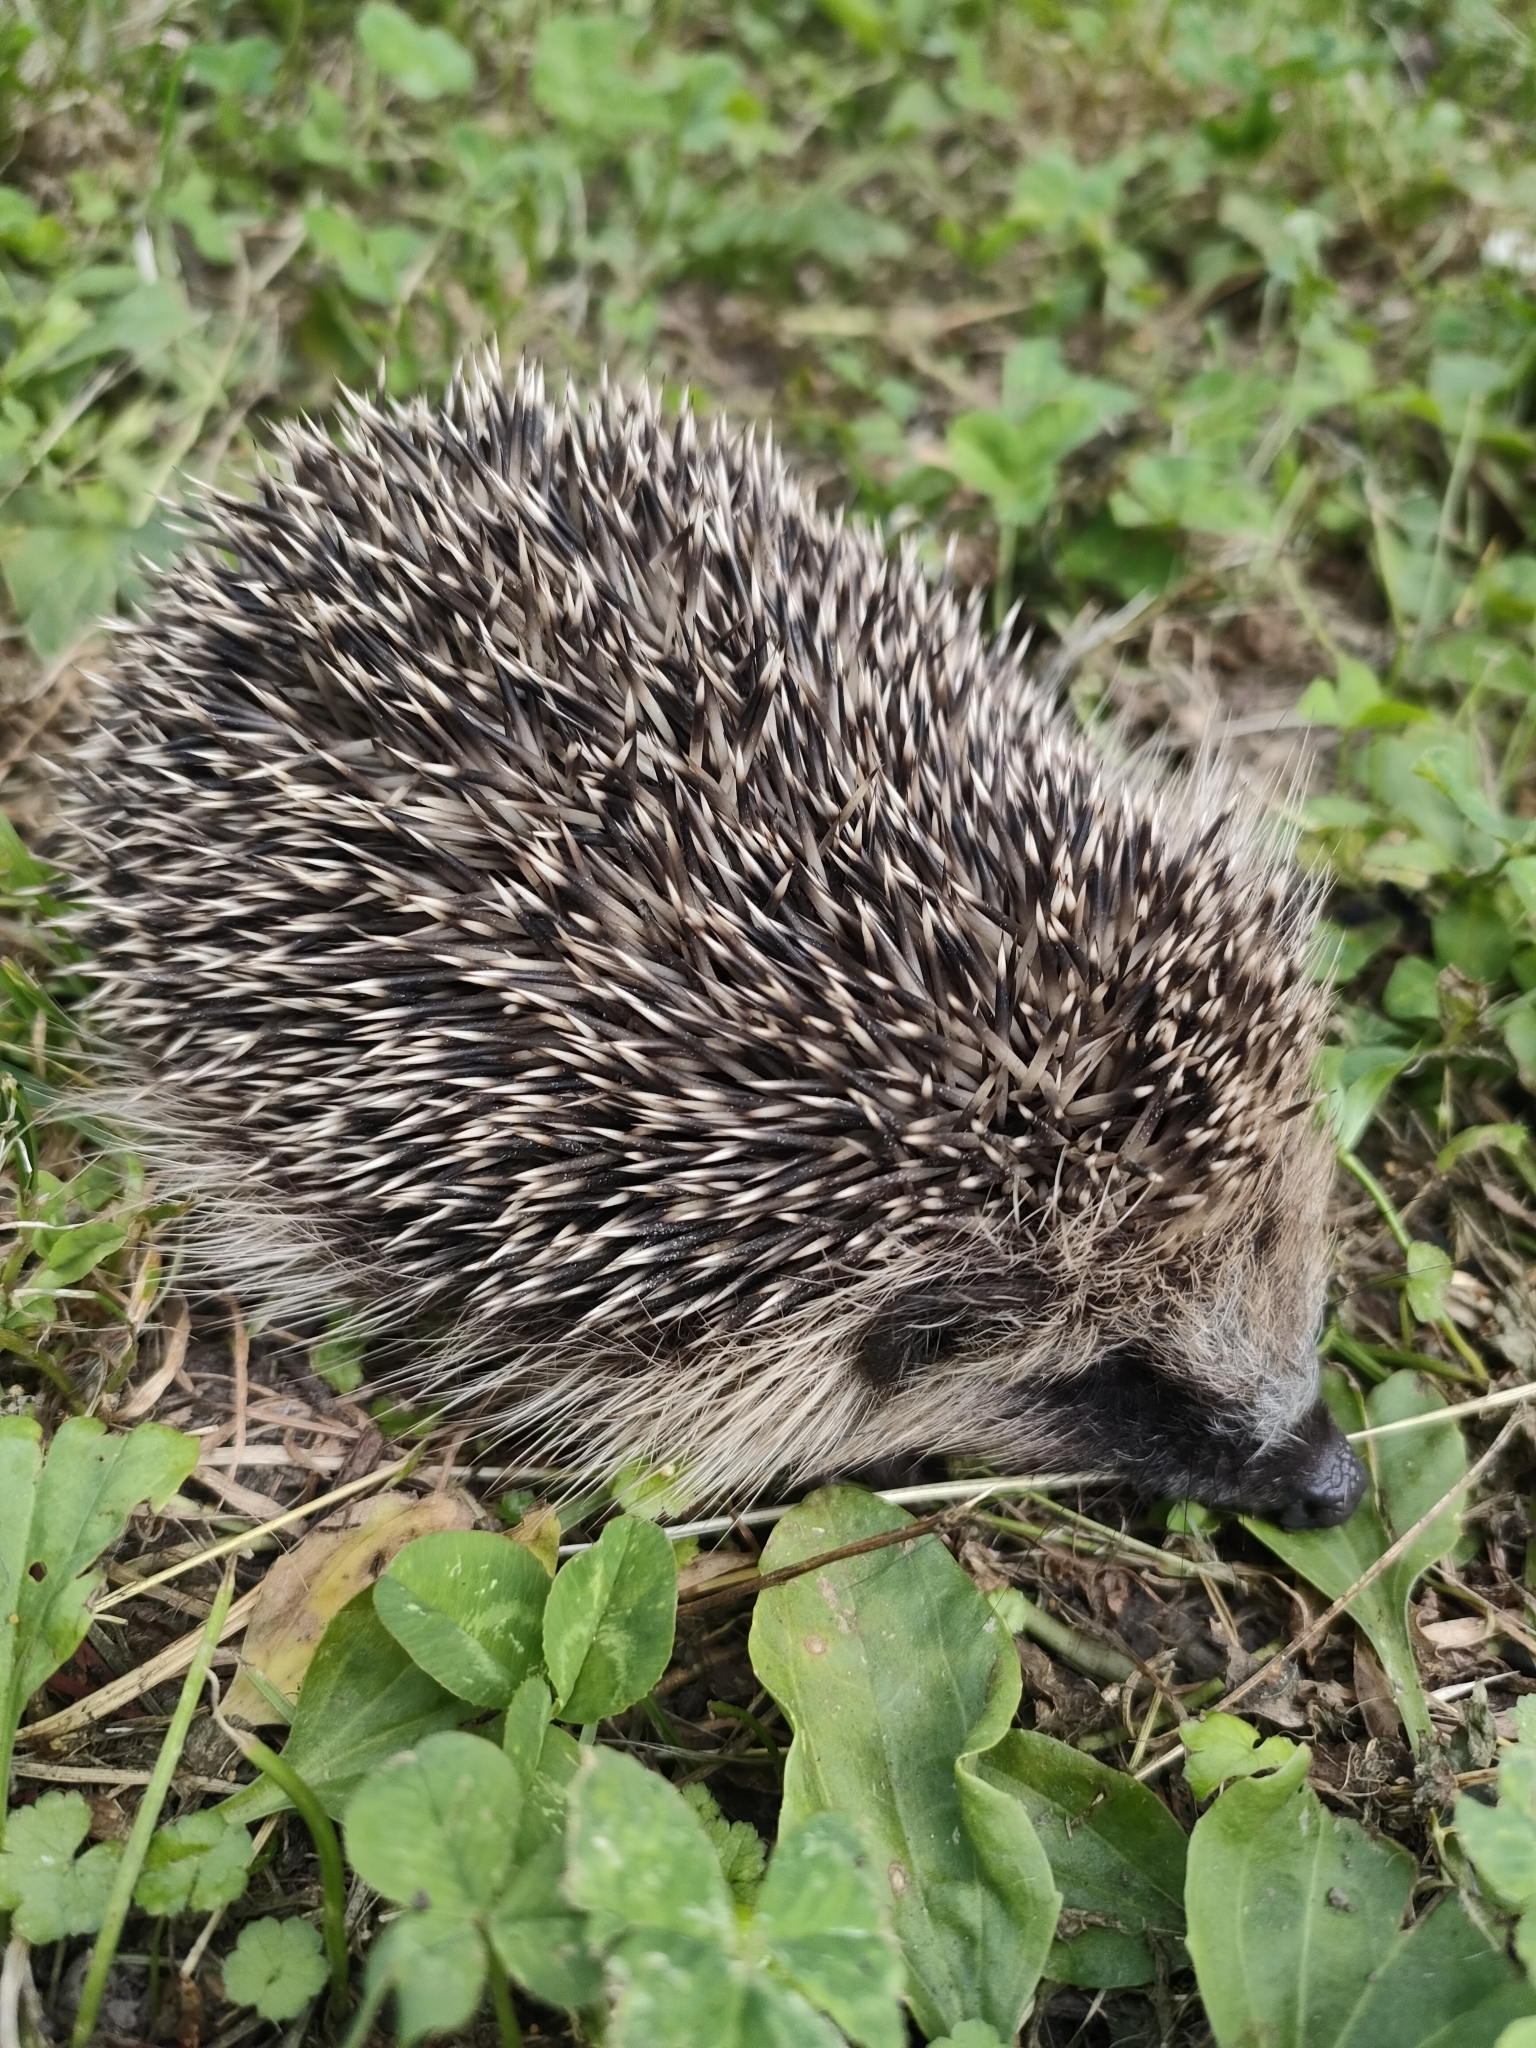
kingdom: Animalia
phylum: Chordata
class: Mammalia
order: Erinaceomorpha
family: Erinaceidae
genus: Erinaceus
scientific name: Erinaceus europaeus
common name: West european hedgehog
